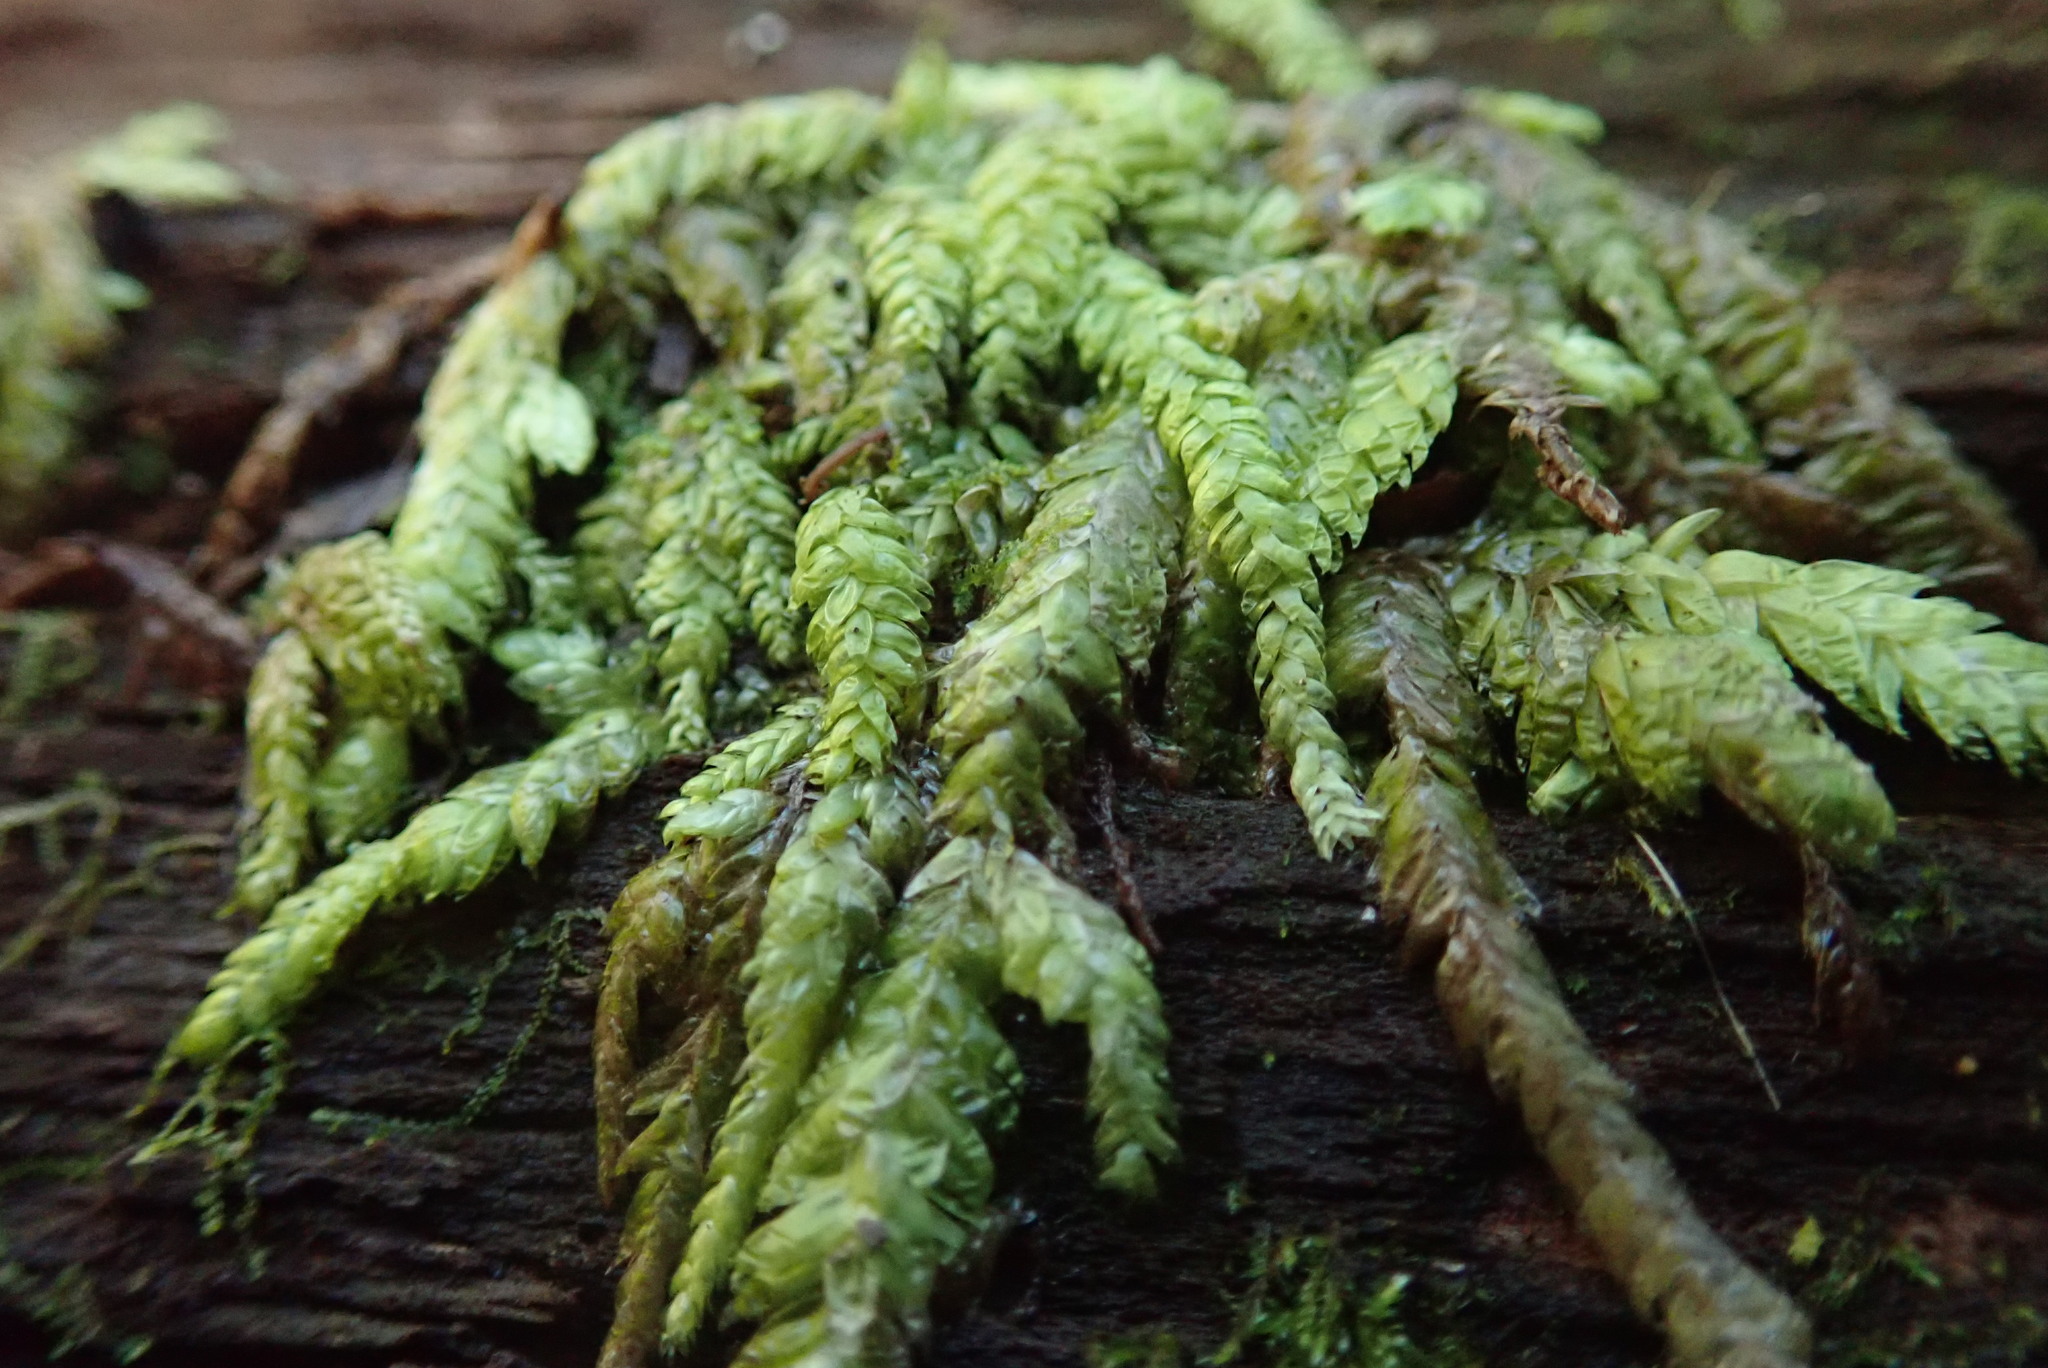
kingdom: Plantae
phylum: Bryophyta
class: Bryopsida
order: Hypnales
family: Plagiotheciaceae
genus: Plagiothecium
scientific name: Plagiothecium undulatum
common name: Waved silk-moss
